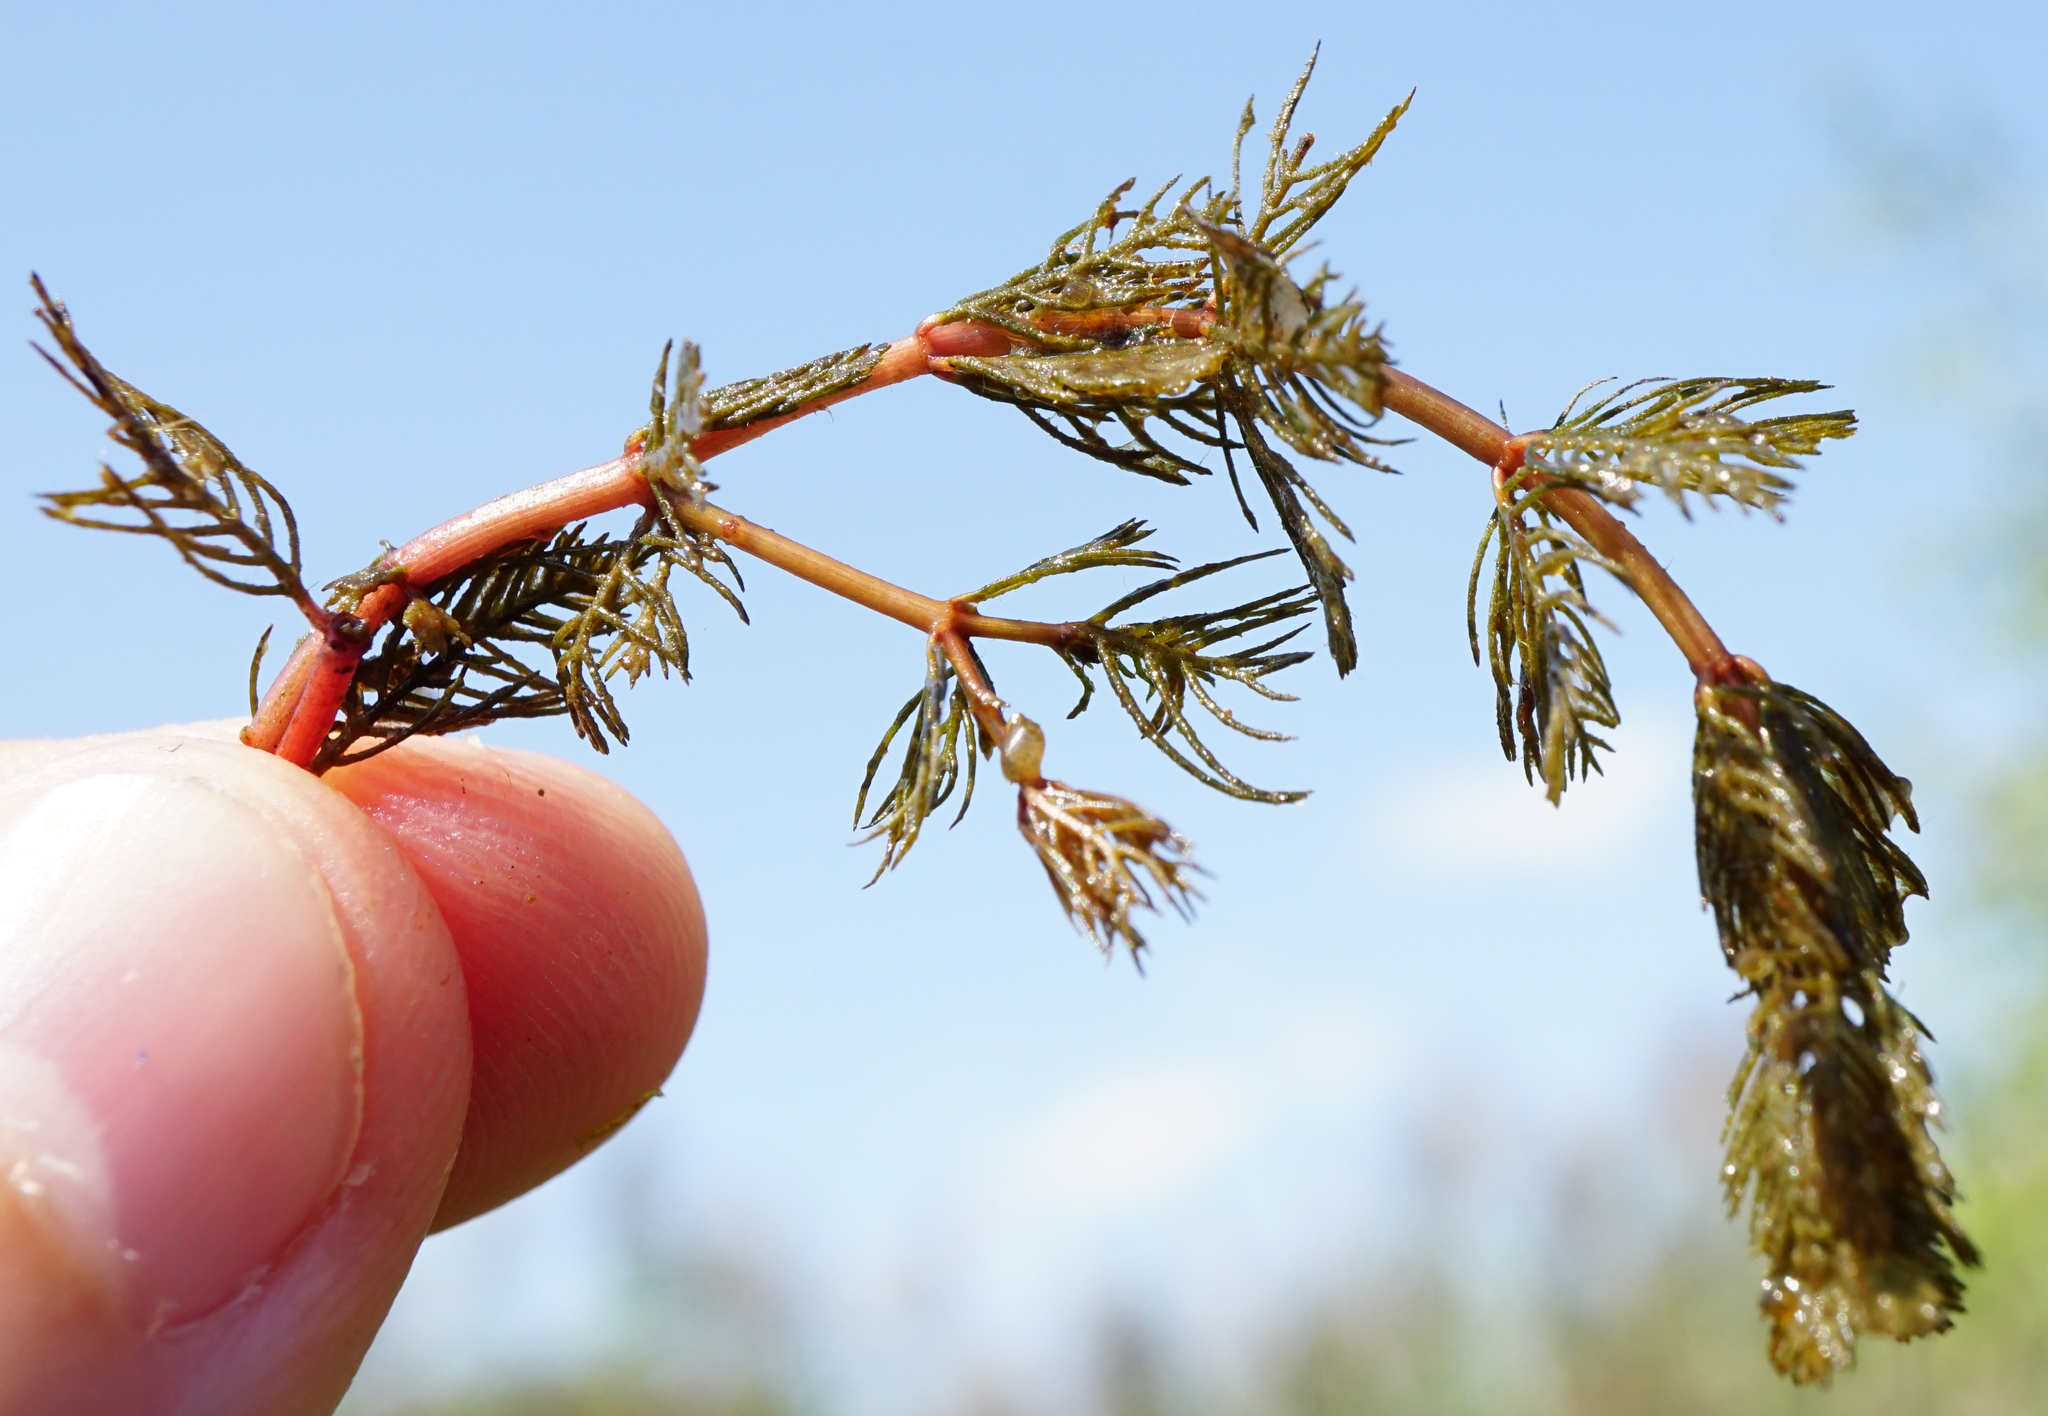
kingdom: Plantae
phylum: Tracheophyta
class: Magnoliopsida
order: Saxifragales
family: Haloragaceae
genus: Myriophyllum
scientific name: Myriophyllum spicatum
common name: Spiked water-milfoil
